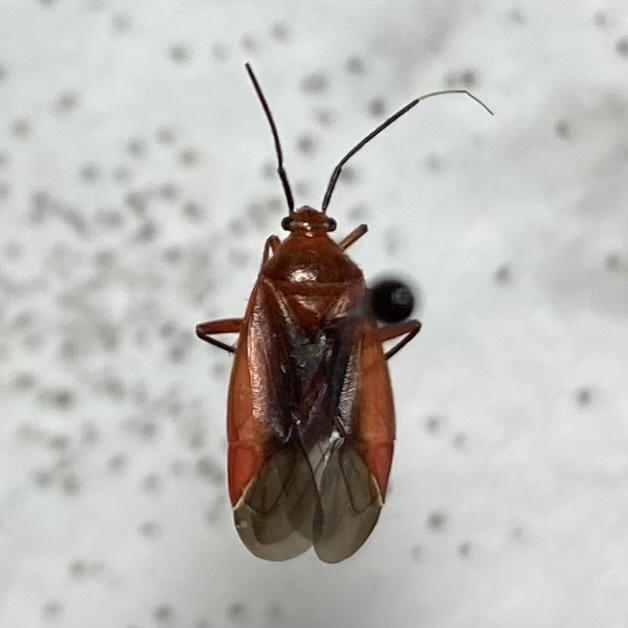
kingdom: Animalia
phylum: Arthropoda
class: Insecta
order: Hemiptera
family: Miridae
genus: Coccobaphes
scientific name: Coccobaphes frontifer
